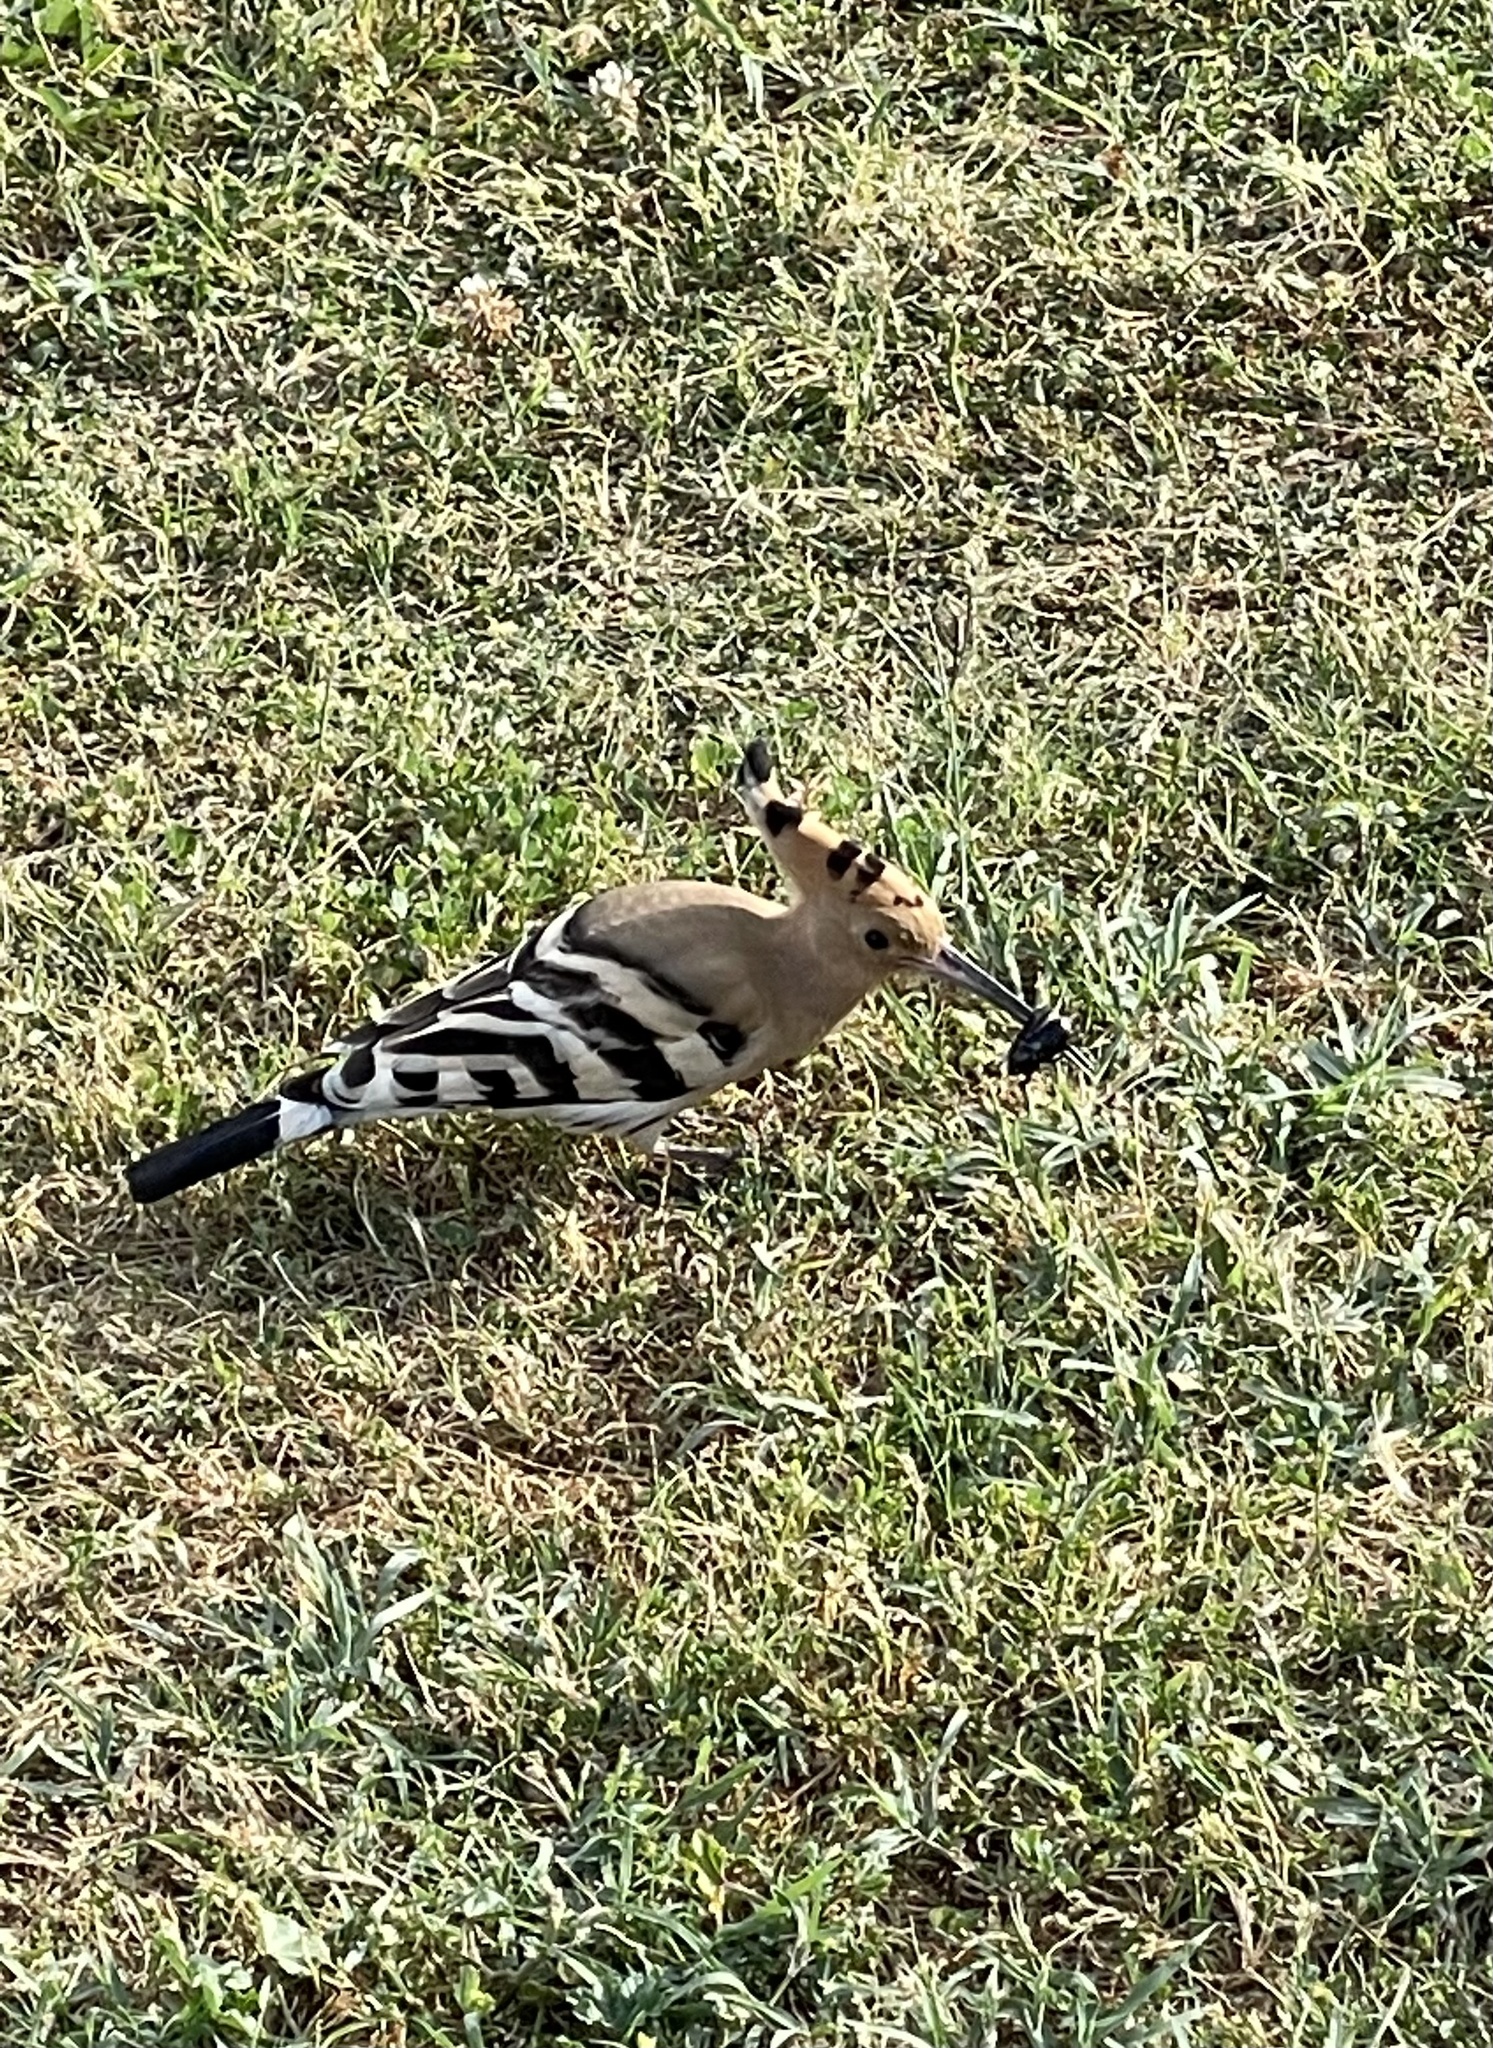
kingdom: Animalia
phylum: Chordata
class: Aves
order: Bucerotiformes
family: Upupidae
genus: Upupa
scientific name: Upupa epops
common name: Eurasian hoopoe
